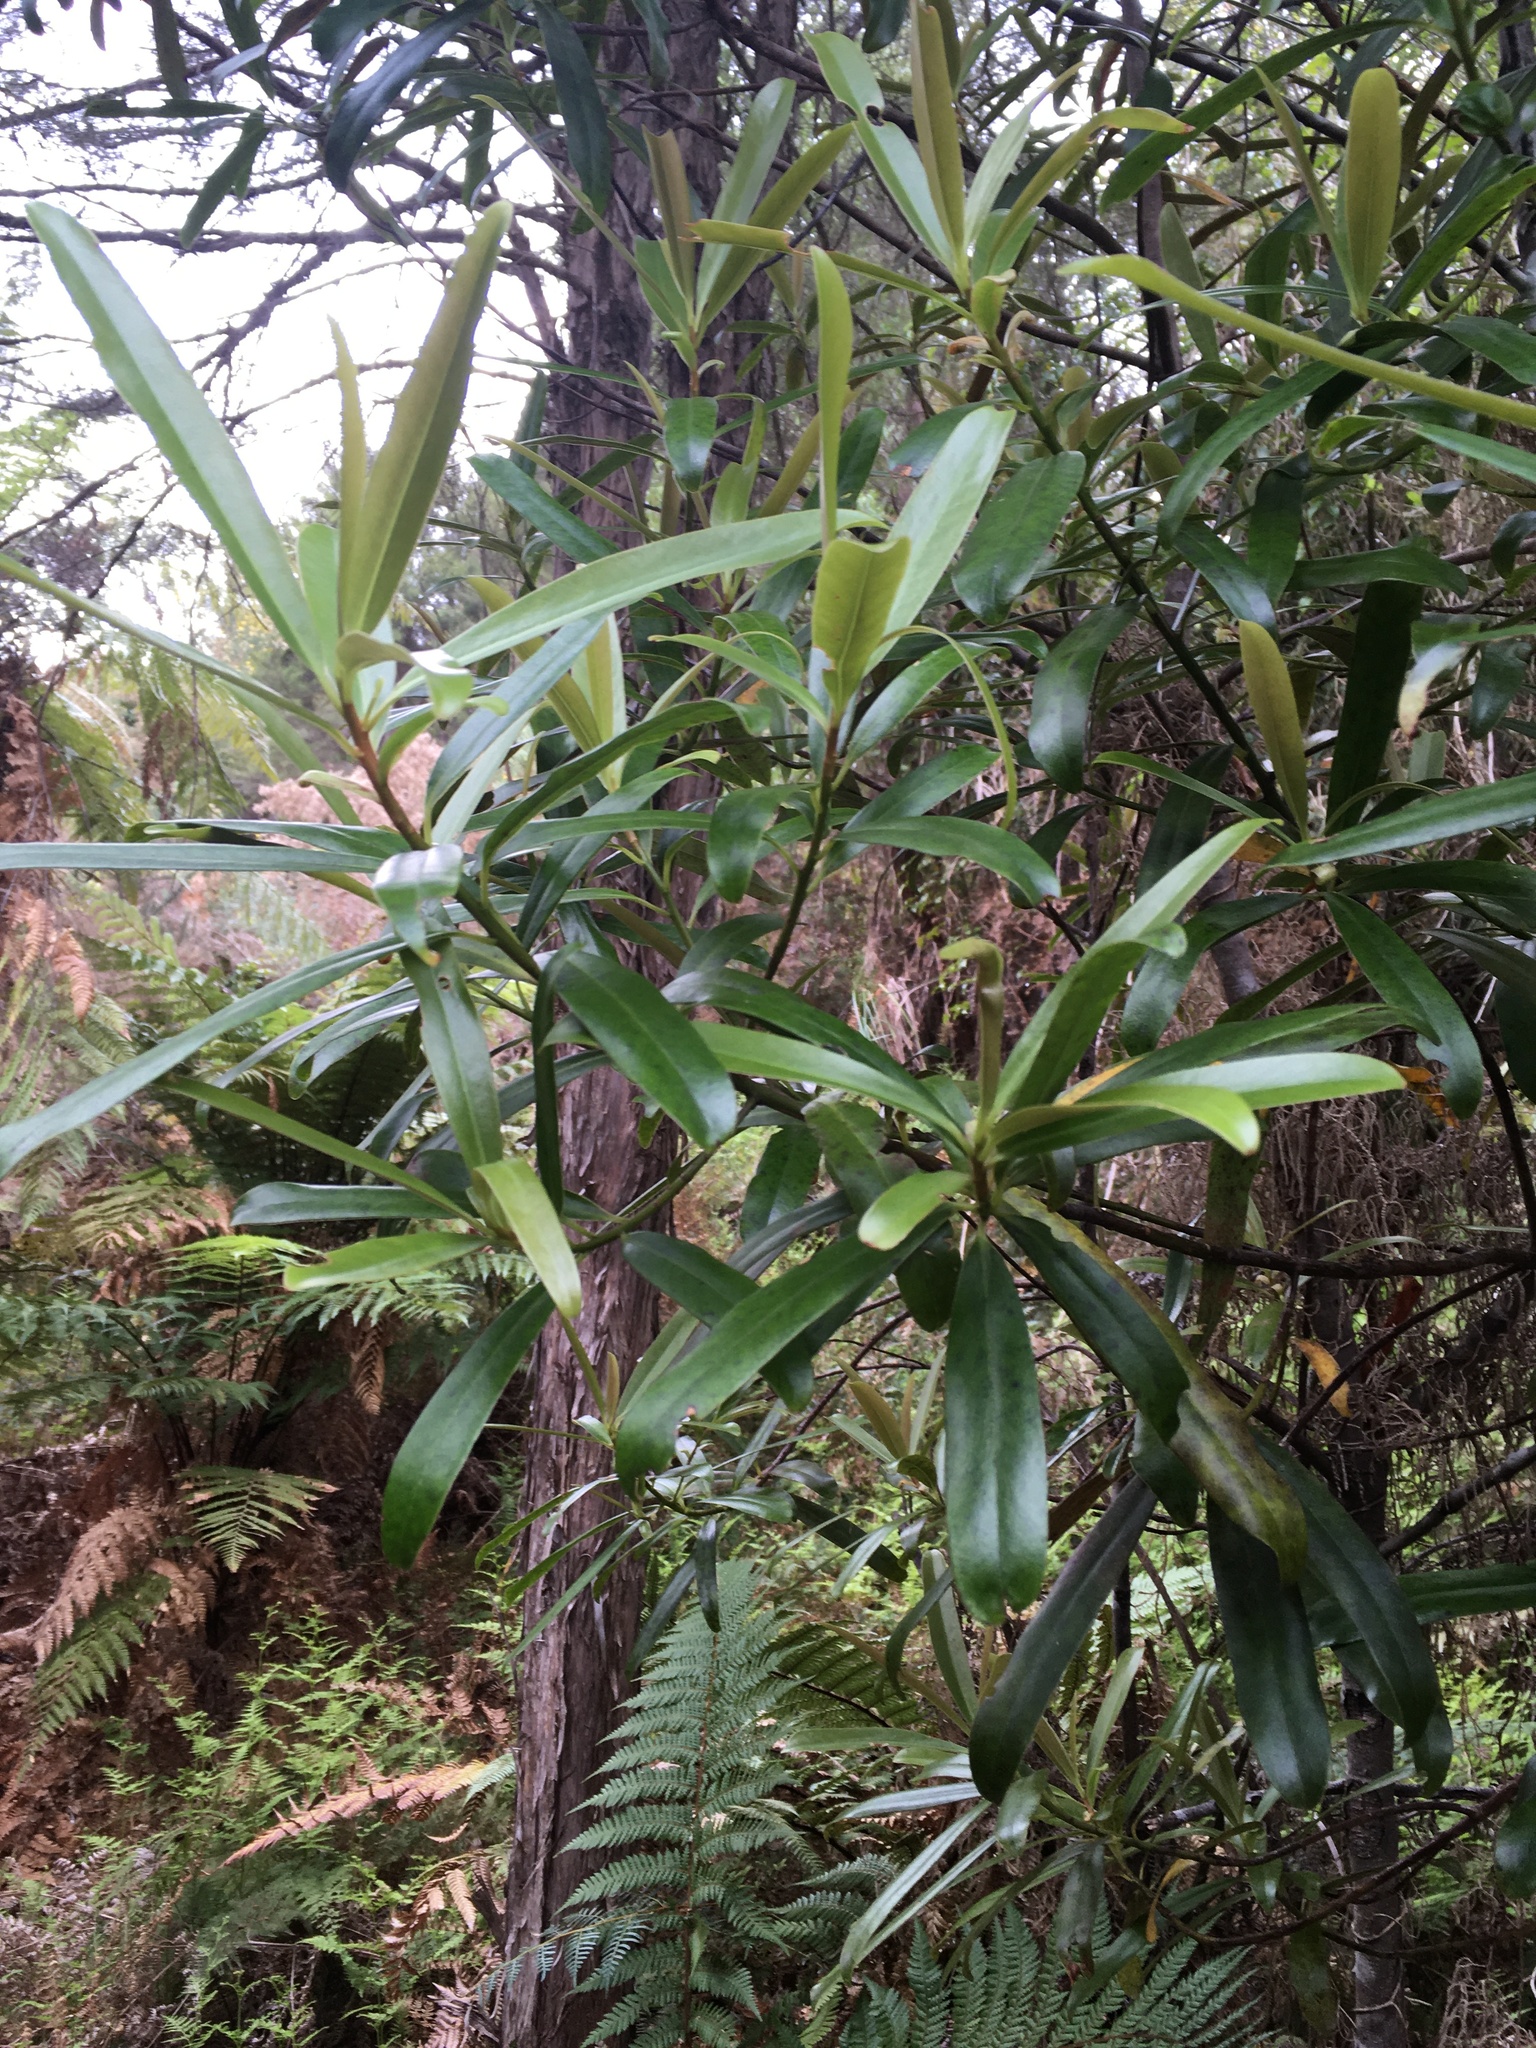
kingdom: Plantae
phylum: Tracheophyta
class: Magnoliopsida
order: Ericales
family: Primulaceae
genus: Myrsine
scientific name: Myrsine salicina
